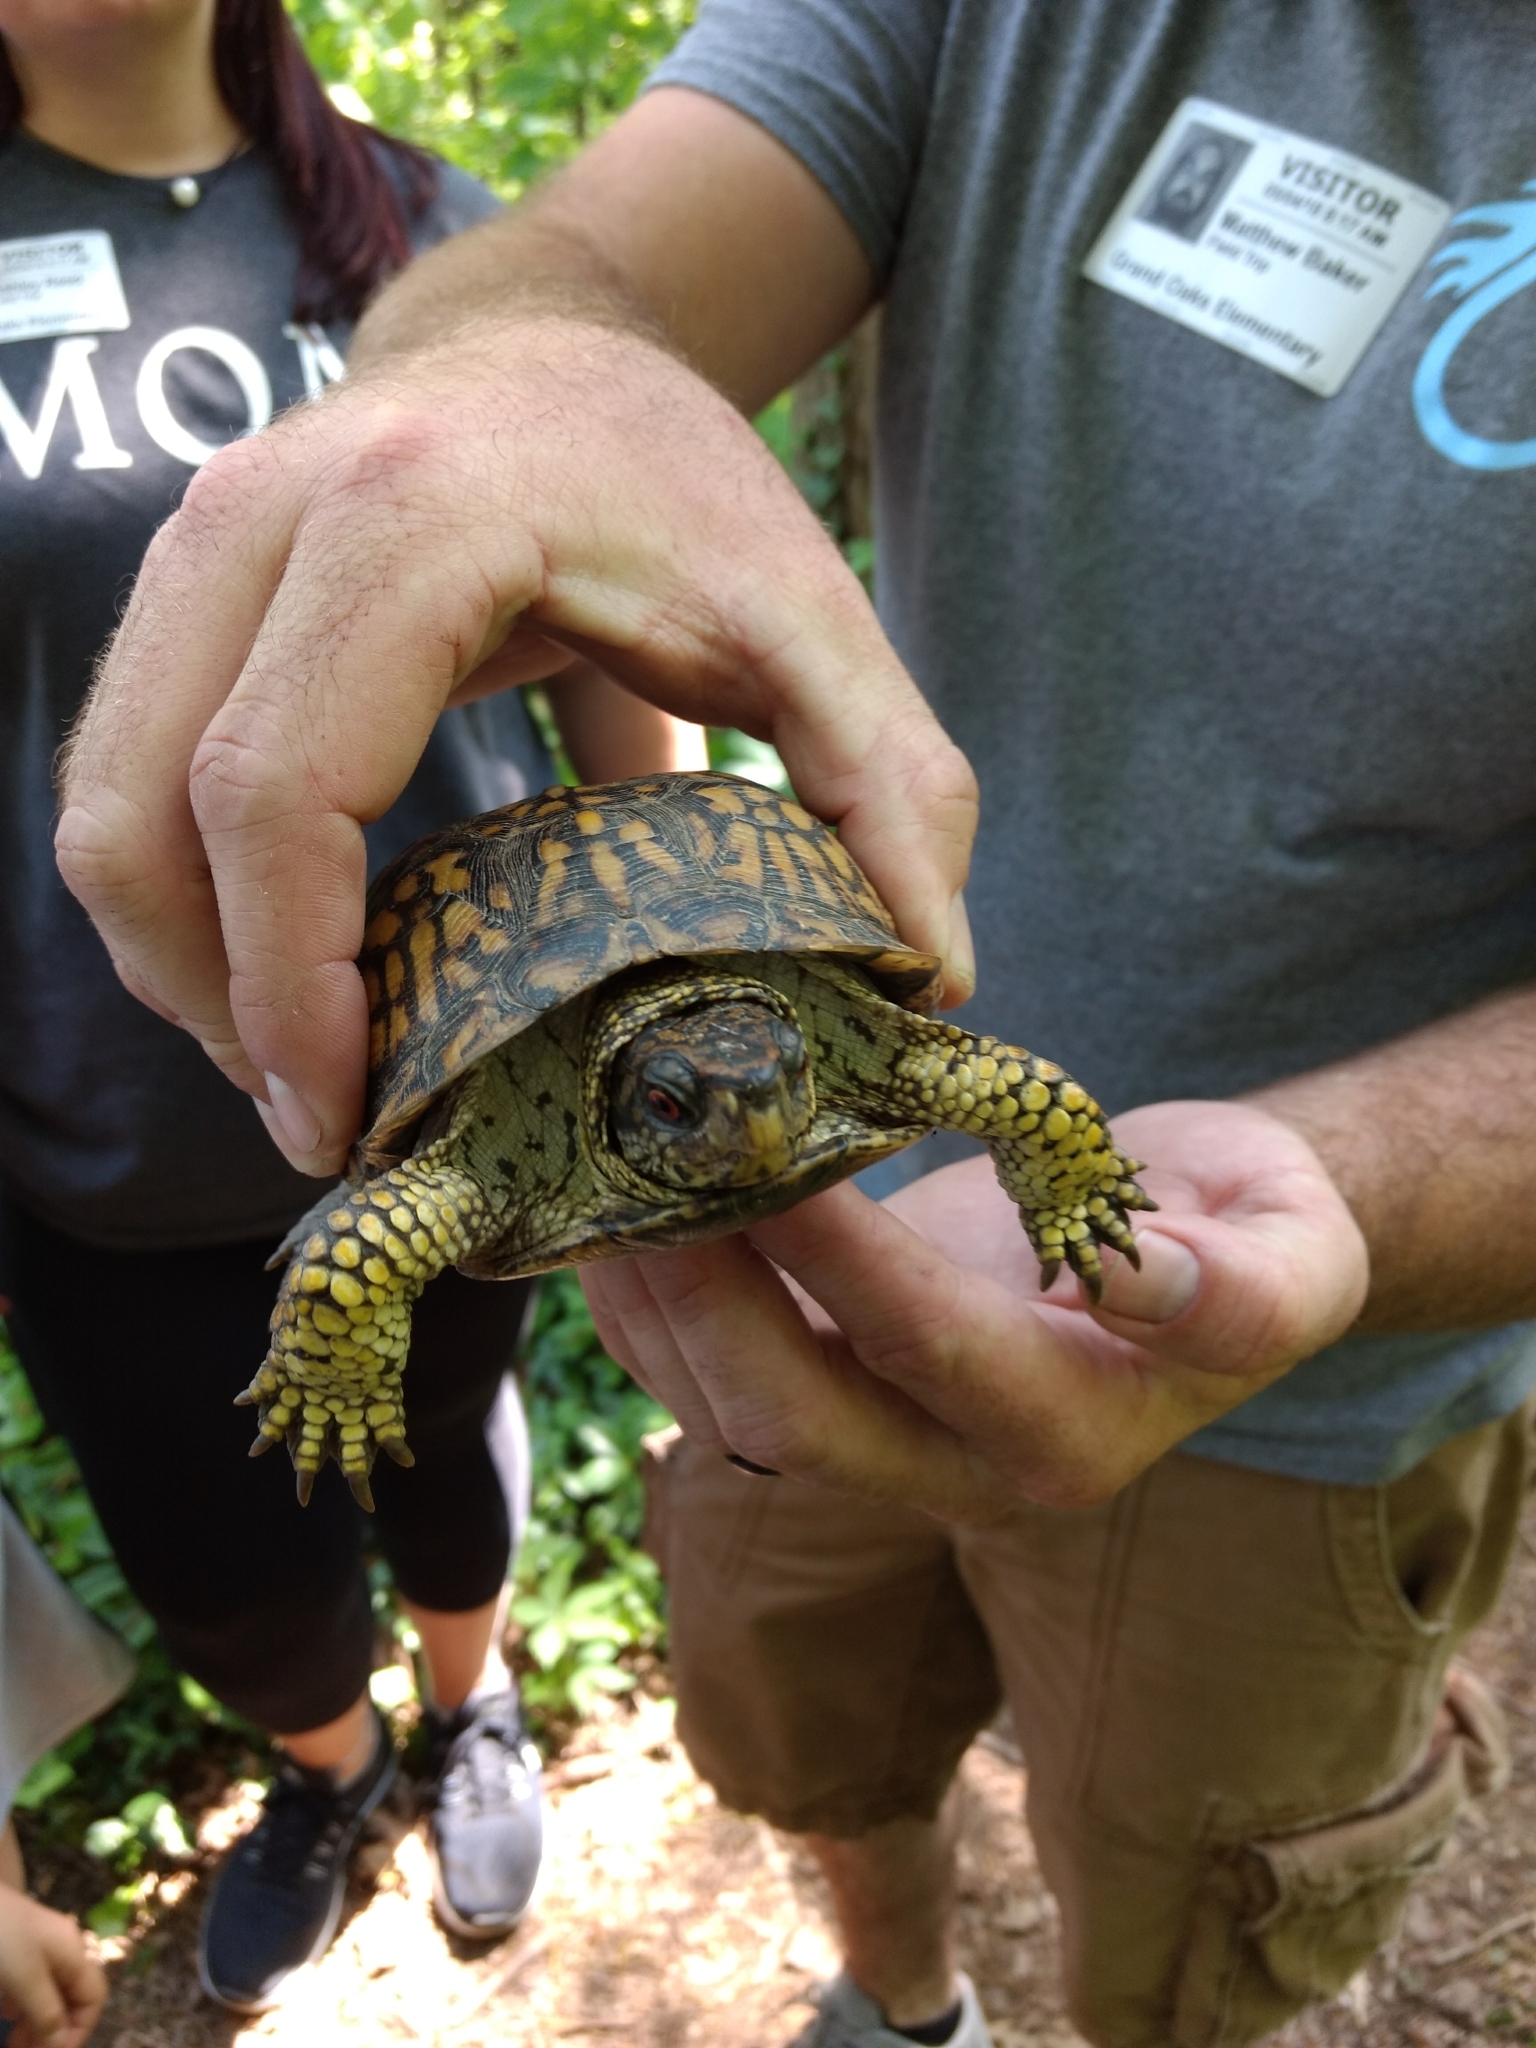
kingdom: Animalia
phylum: Chordata
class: Testudines
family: Emydidae
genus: Terrapene
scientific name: Terrapene carolina
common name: Common box turtle
